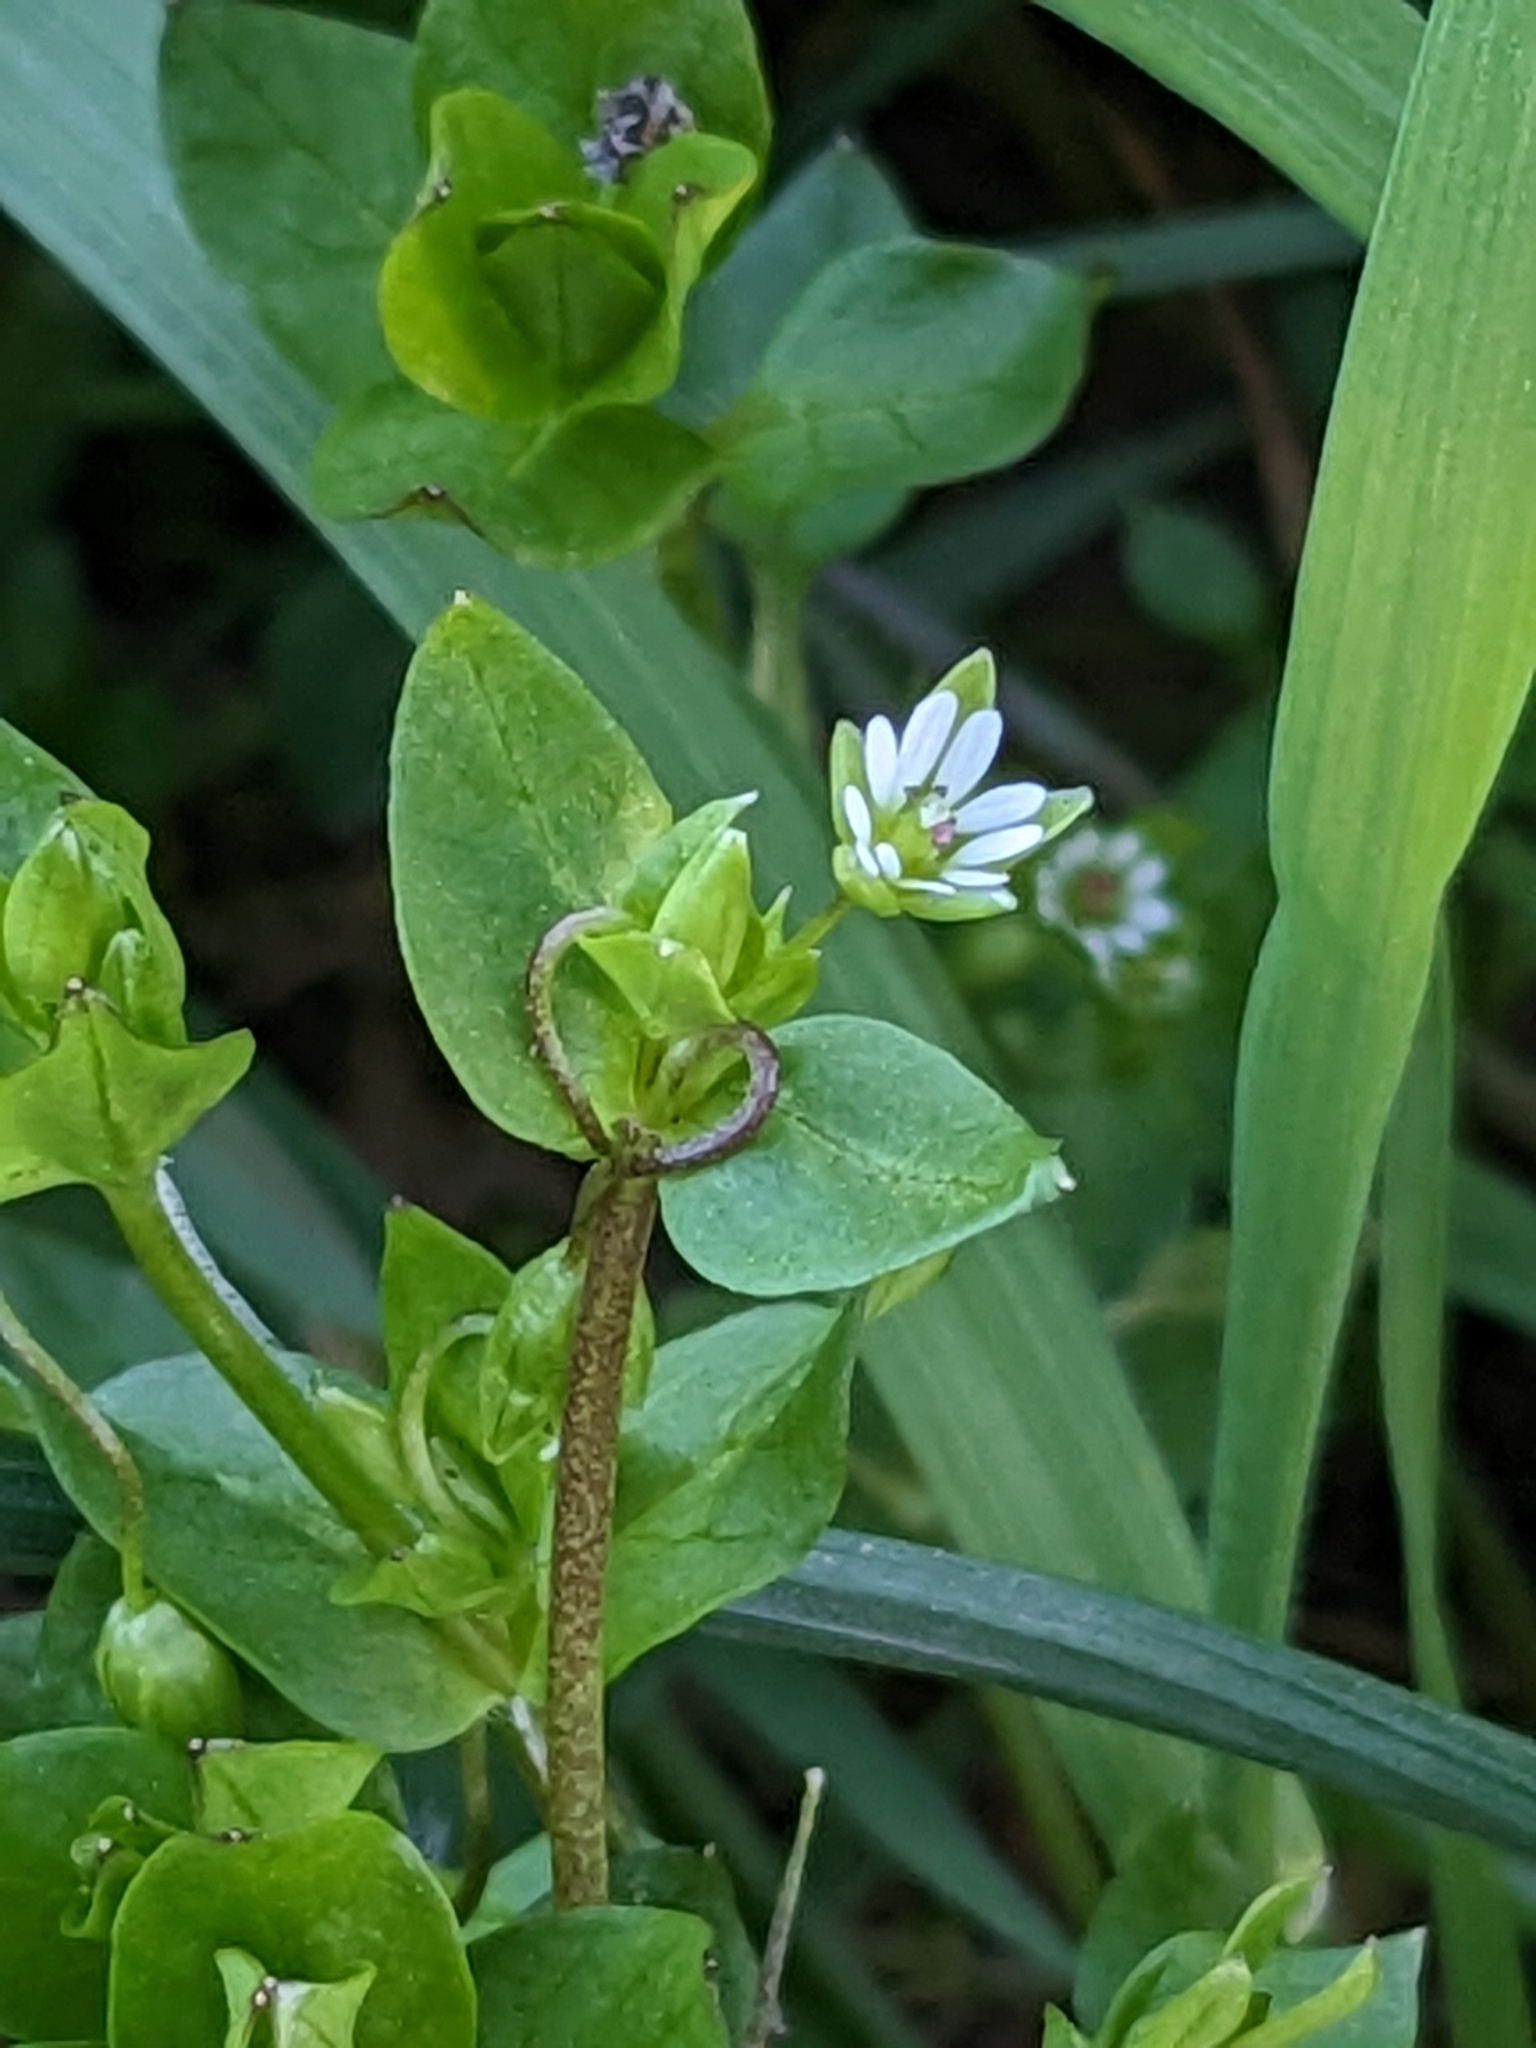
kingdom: Plantae
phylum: Tracheophyta
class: Magnoliopsida
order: Caryophyllales
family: Caryophyllaceae
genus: Stellaria
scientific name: Stellaria media
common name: Common chickweed
